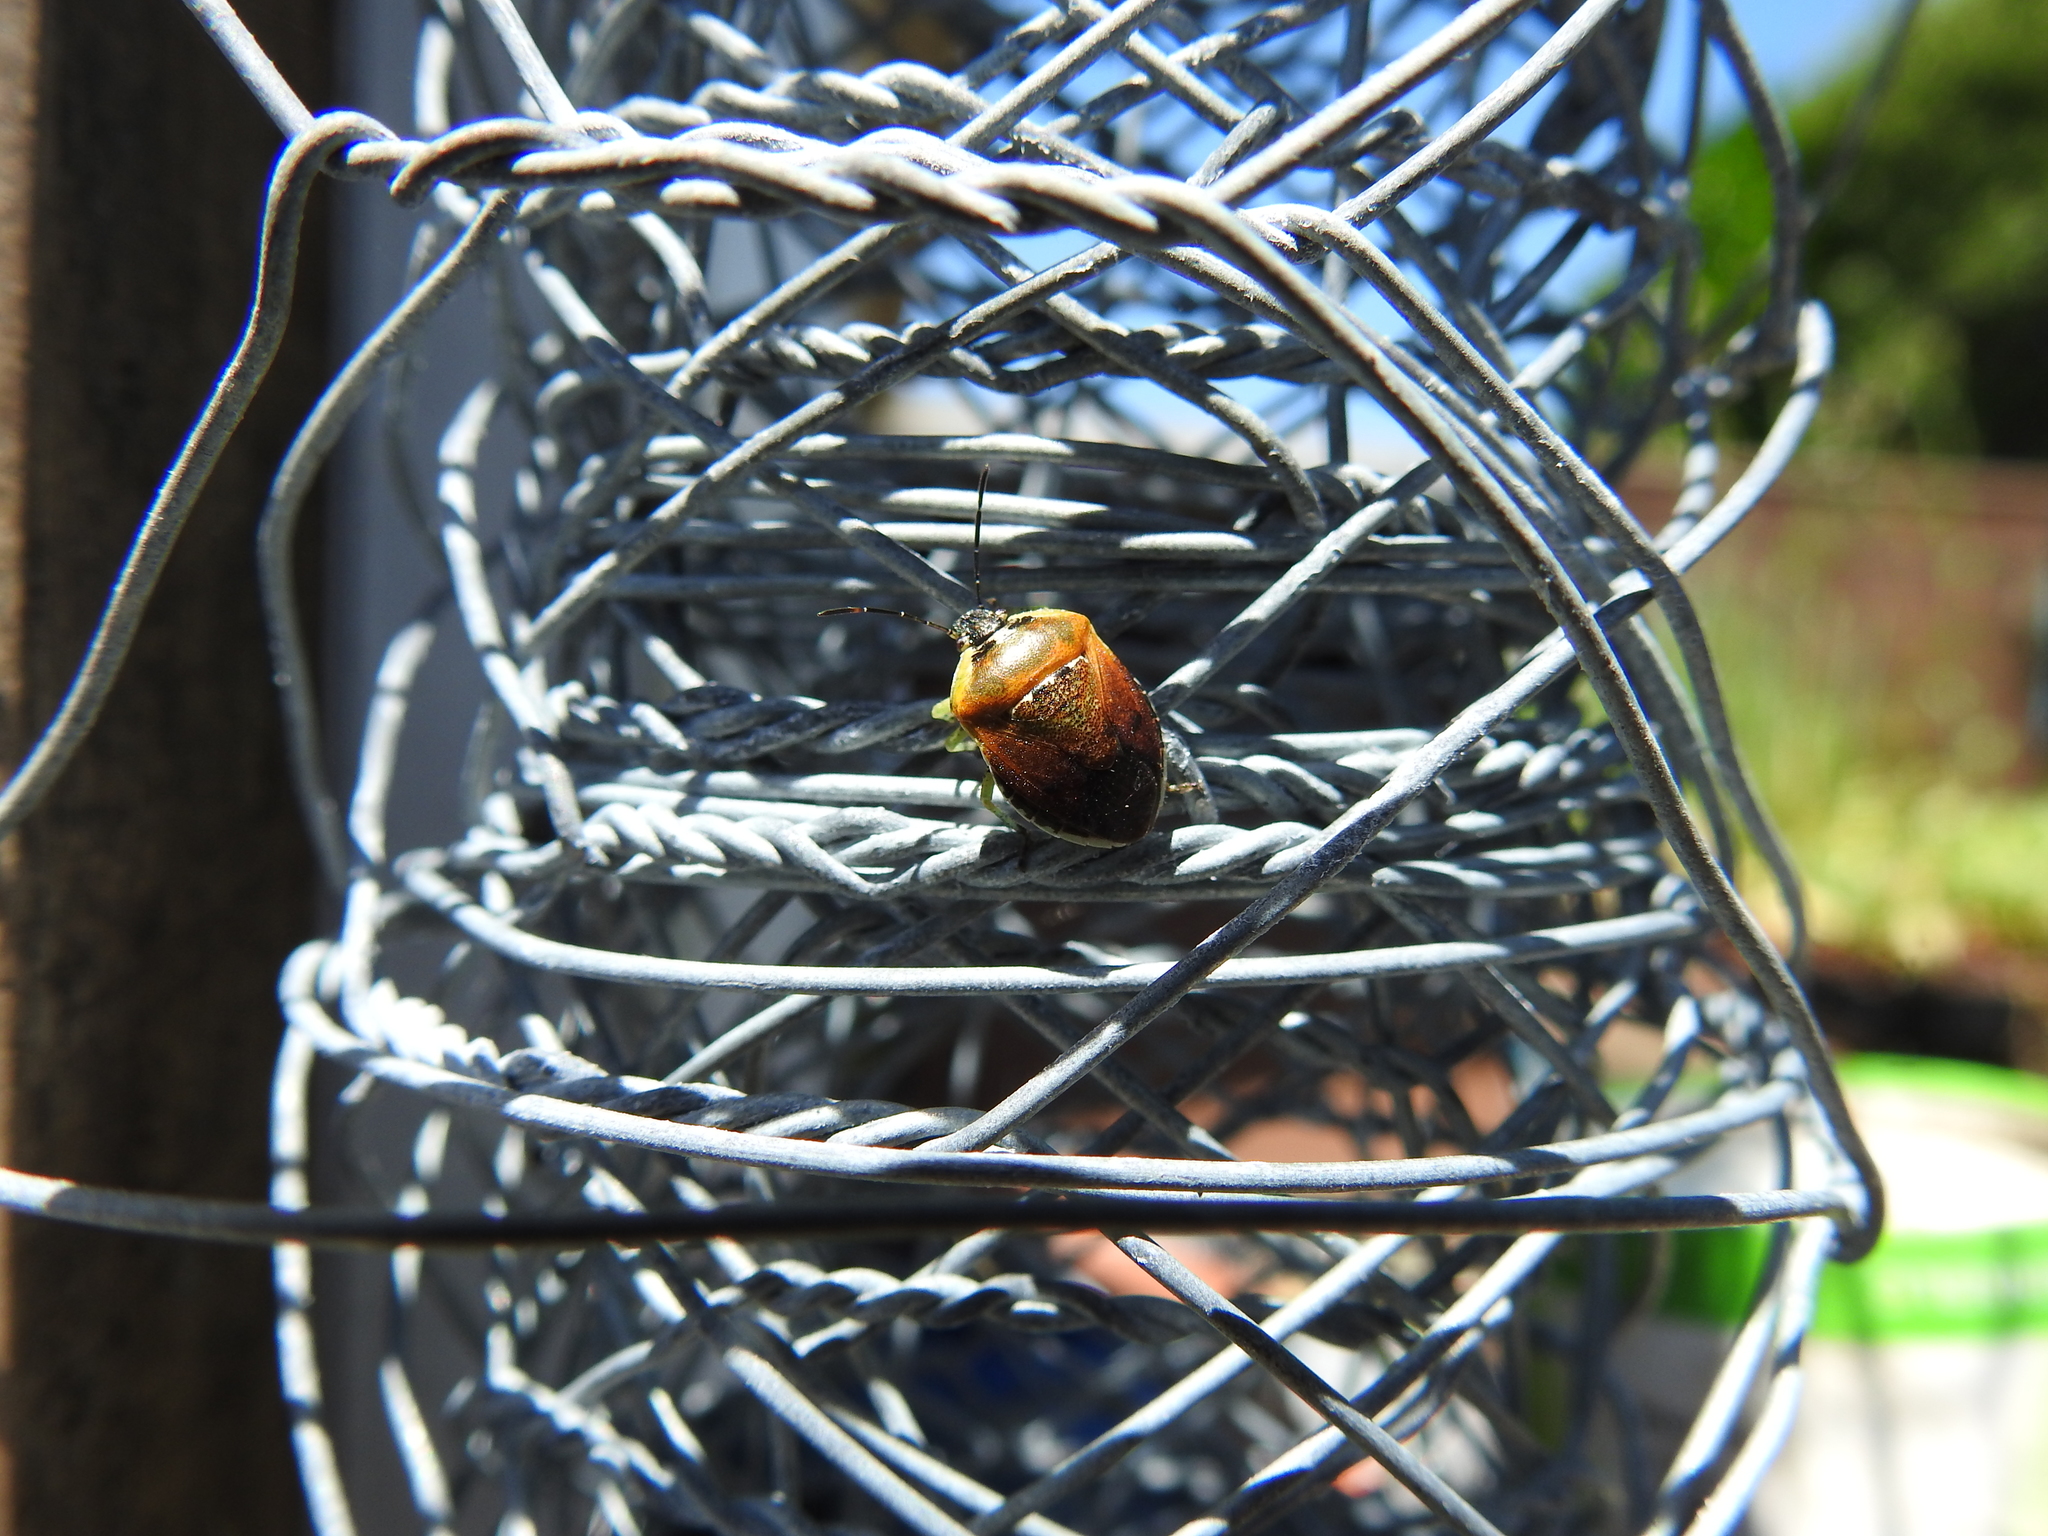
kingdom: Animalia
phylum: Arthropoda
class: Insecta
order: Hemiptera
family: Pentatomidae
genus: Monteithiella
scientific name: Monteithiella
